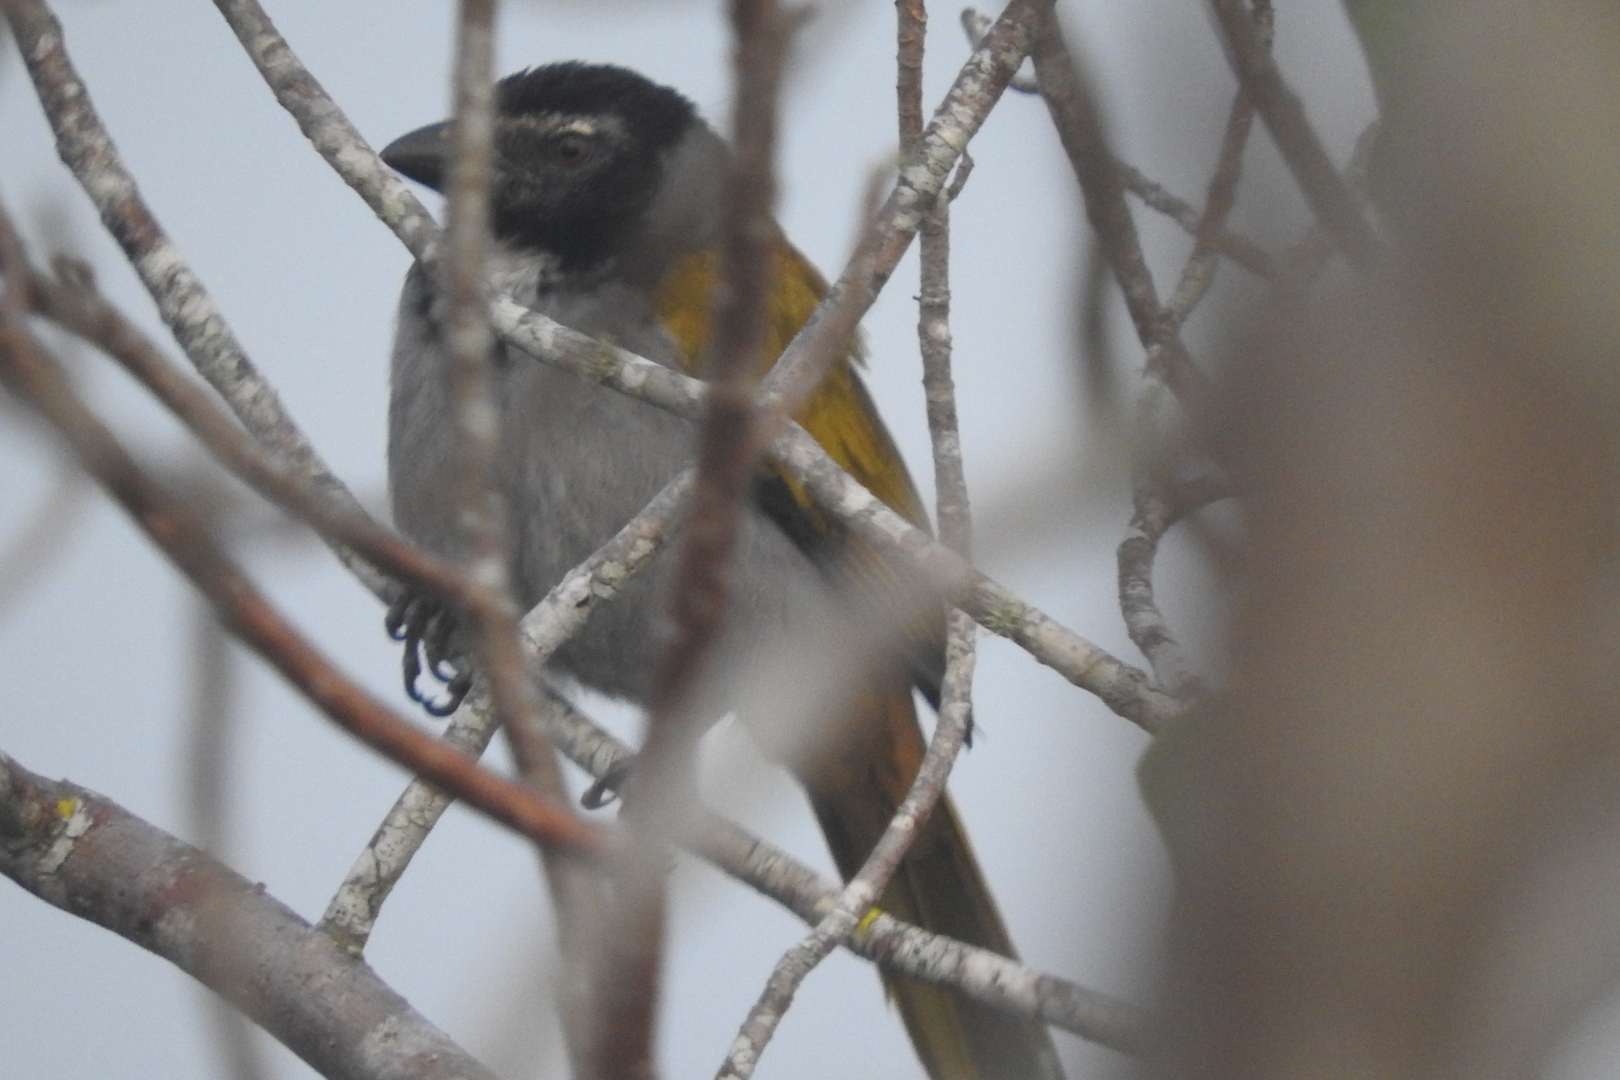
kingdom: Animalia
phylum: Chordata
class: Aves
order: Passeriformes
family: Thraupidae
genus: Saltator
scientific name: Saltator atriceps
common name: Black-headed saltator
